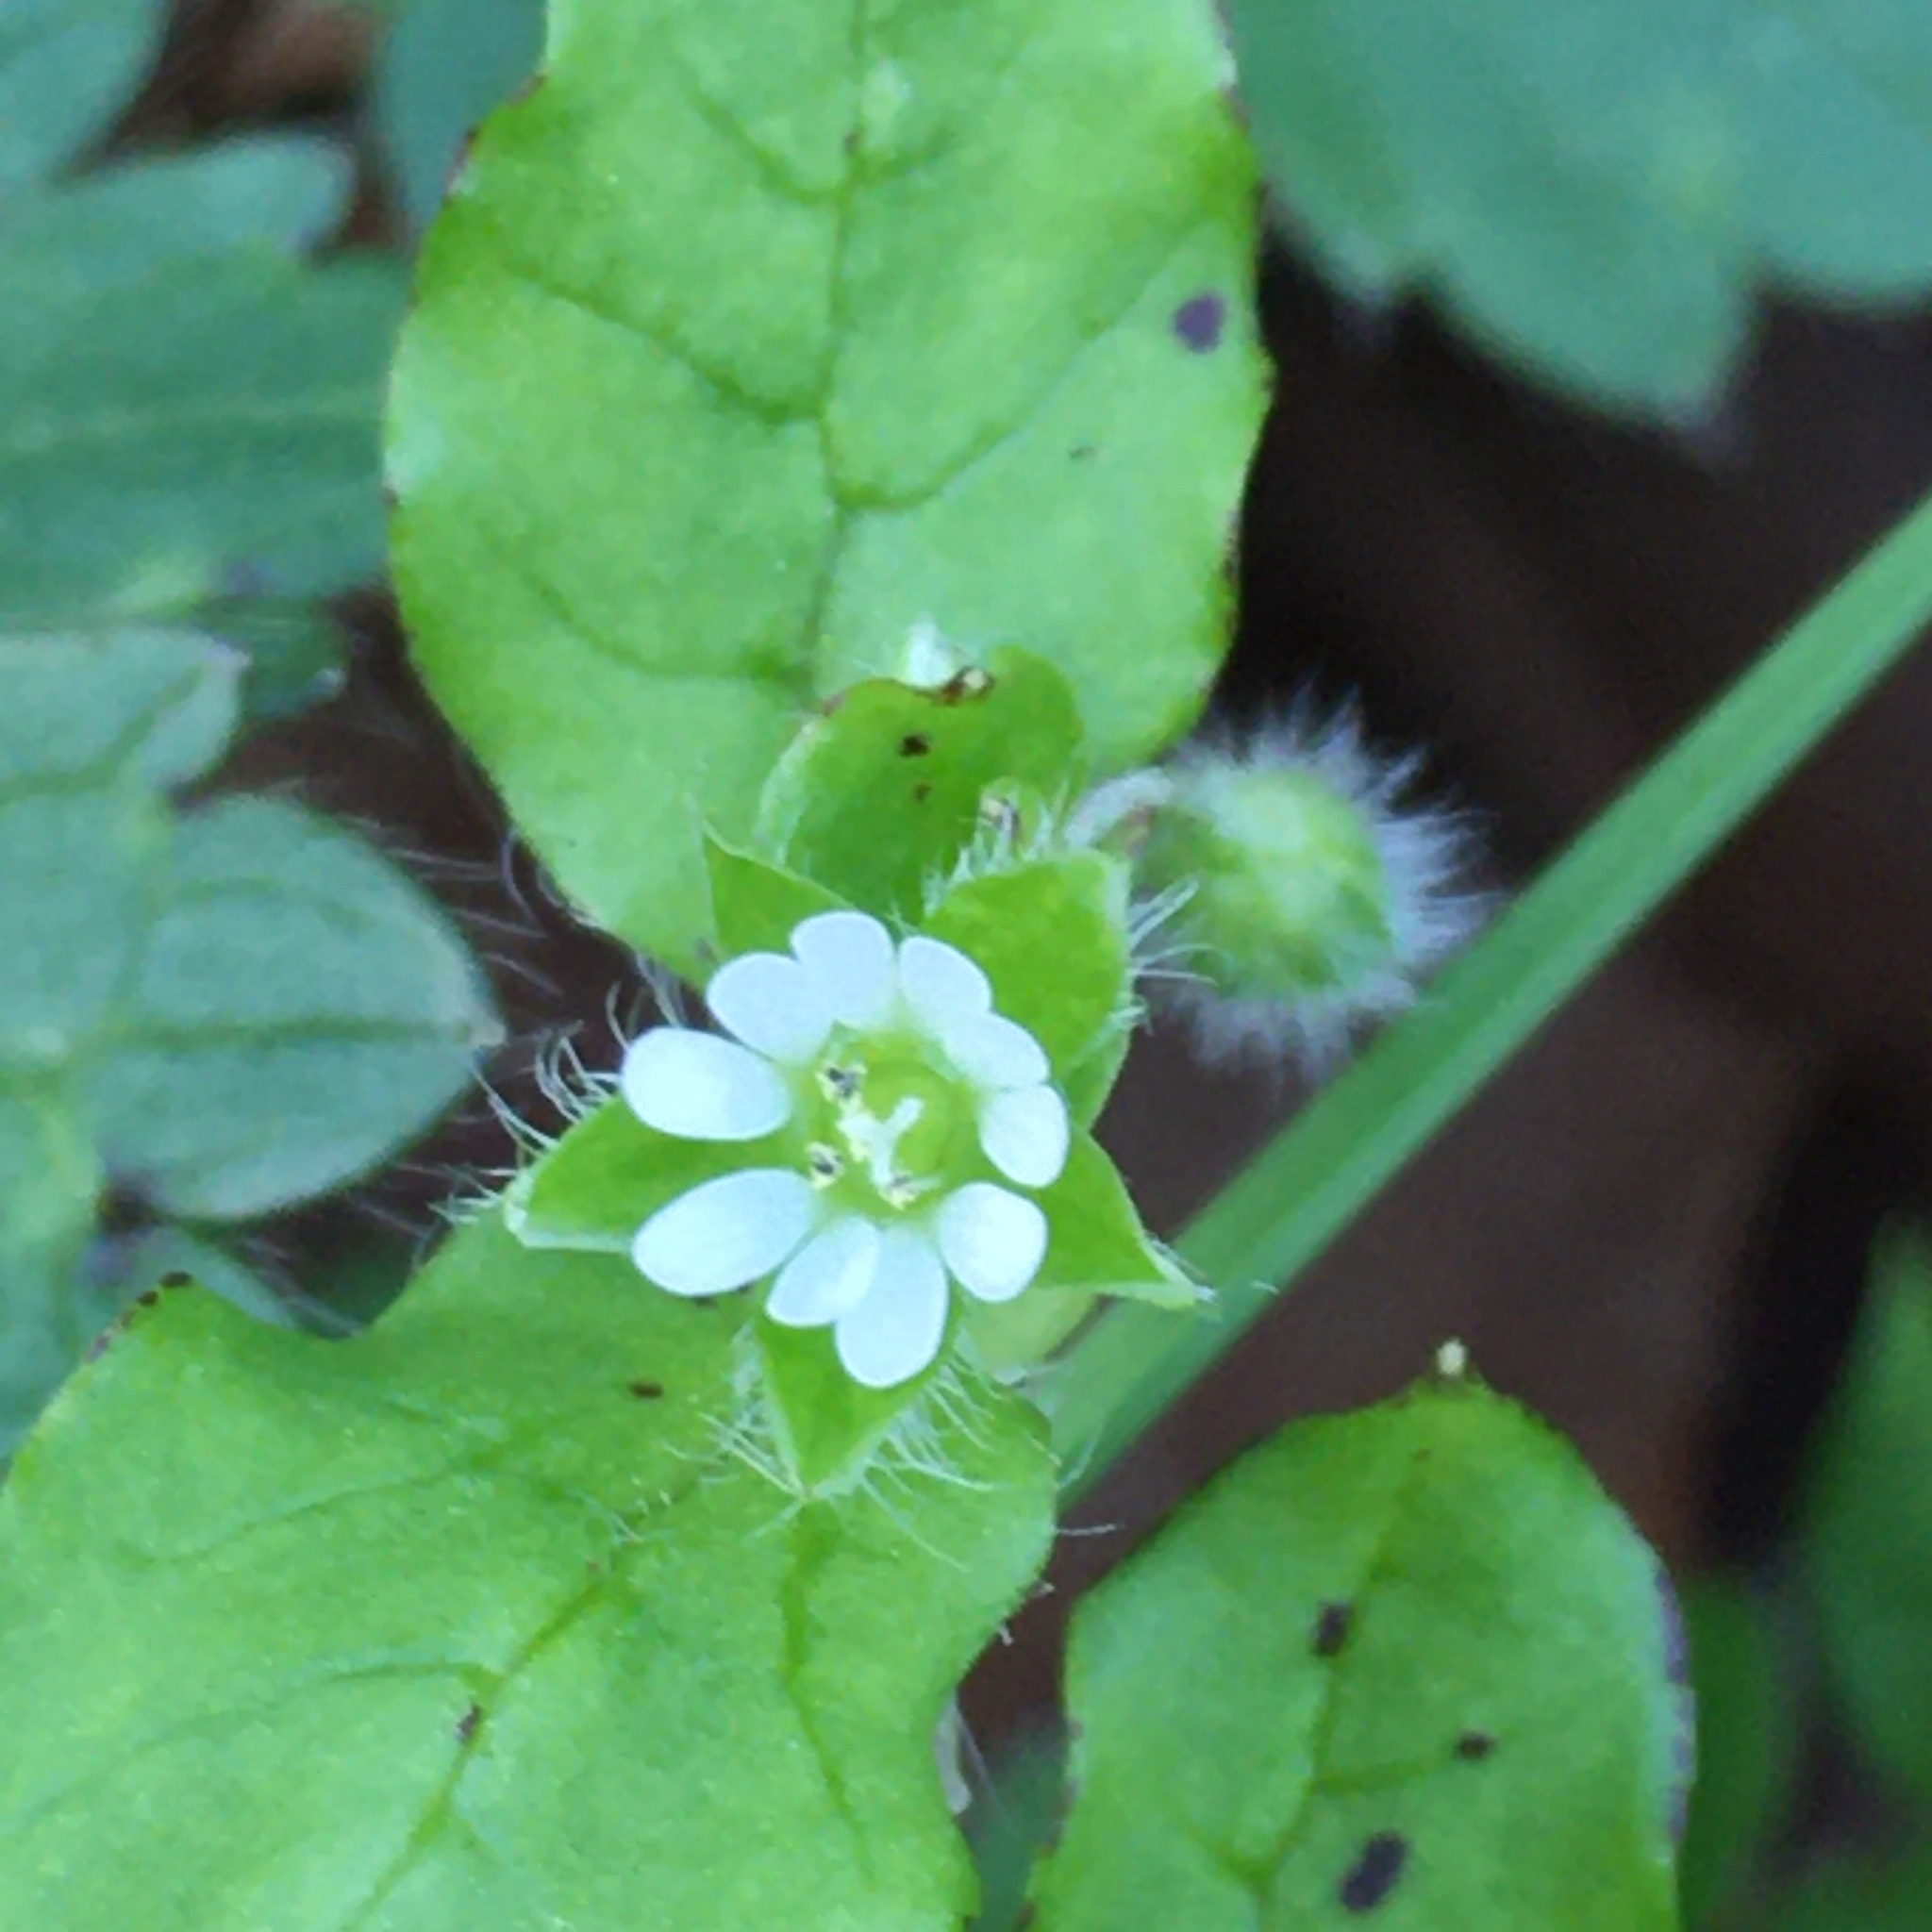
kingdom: Plantae
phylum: Tracheophyta
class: Magnoliopsida
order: Caryophyllales
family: Caryophyllaceae
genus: Stellaria
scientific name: Stellaria media
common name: Common chickweed
